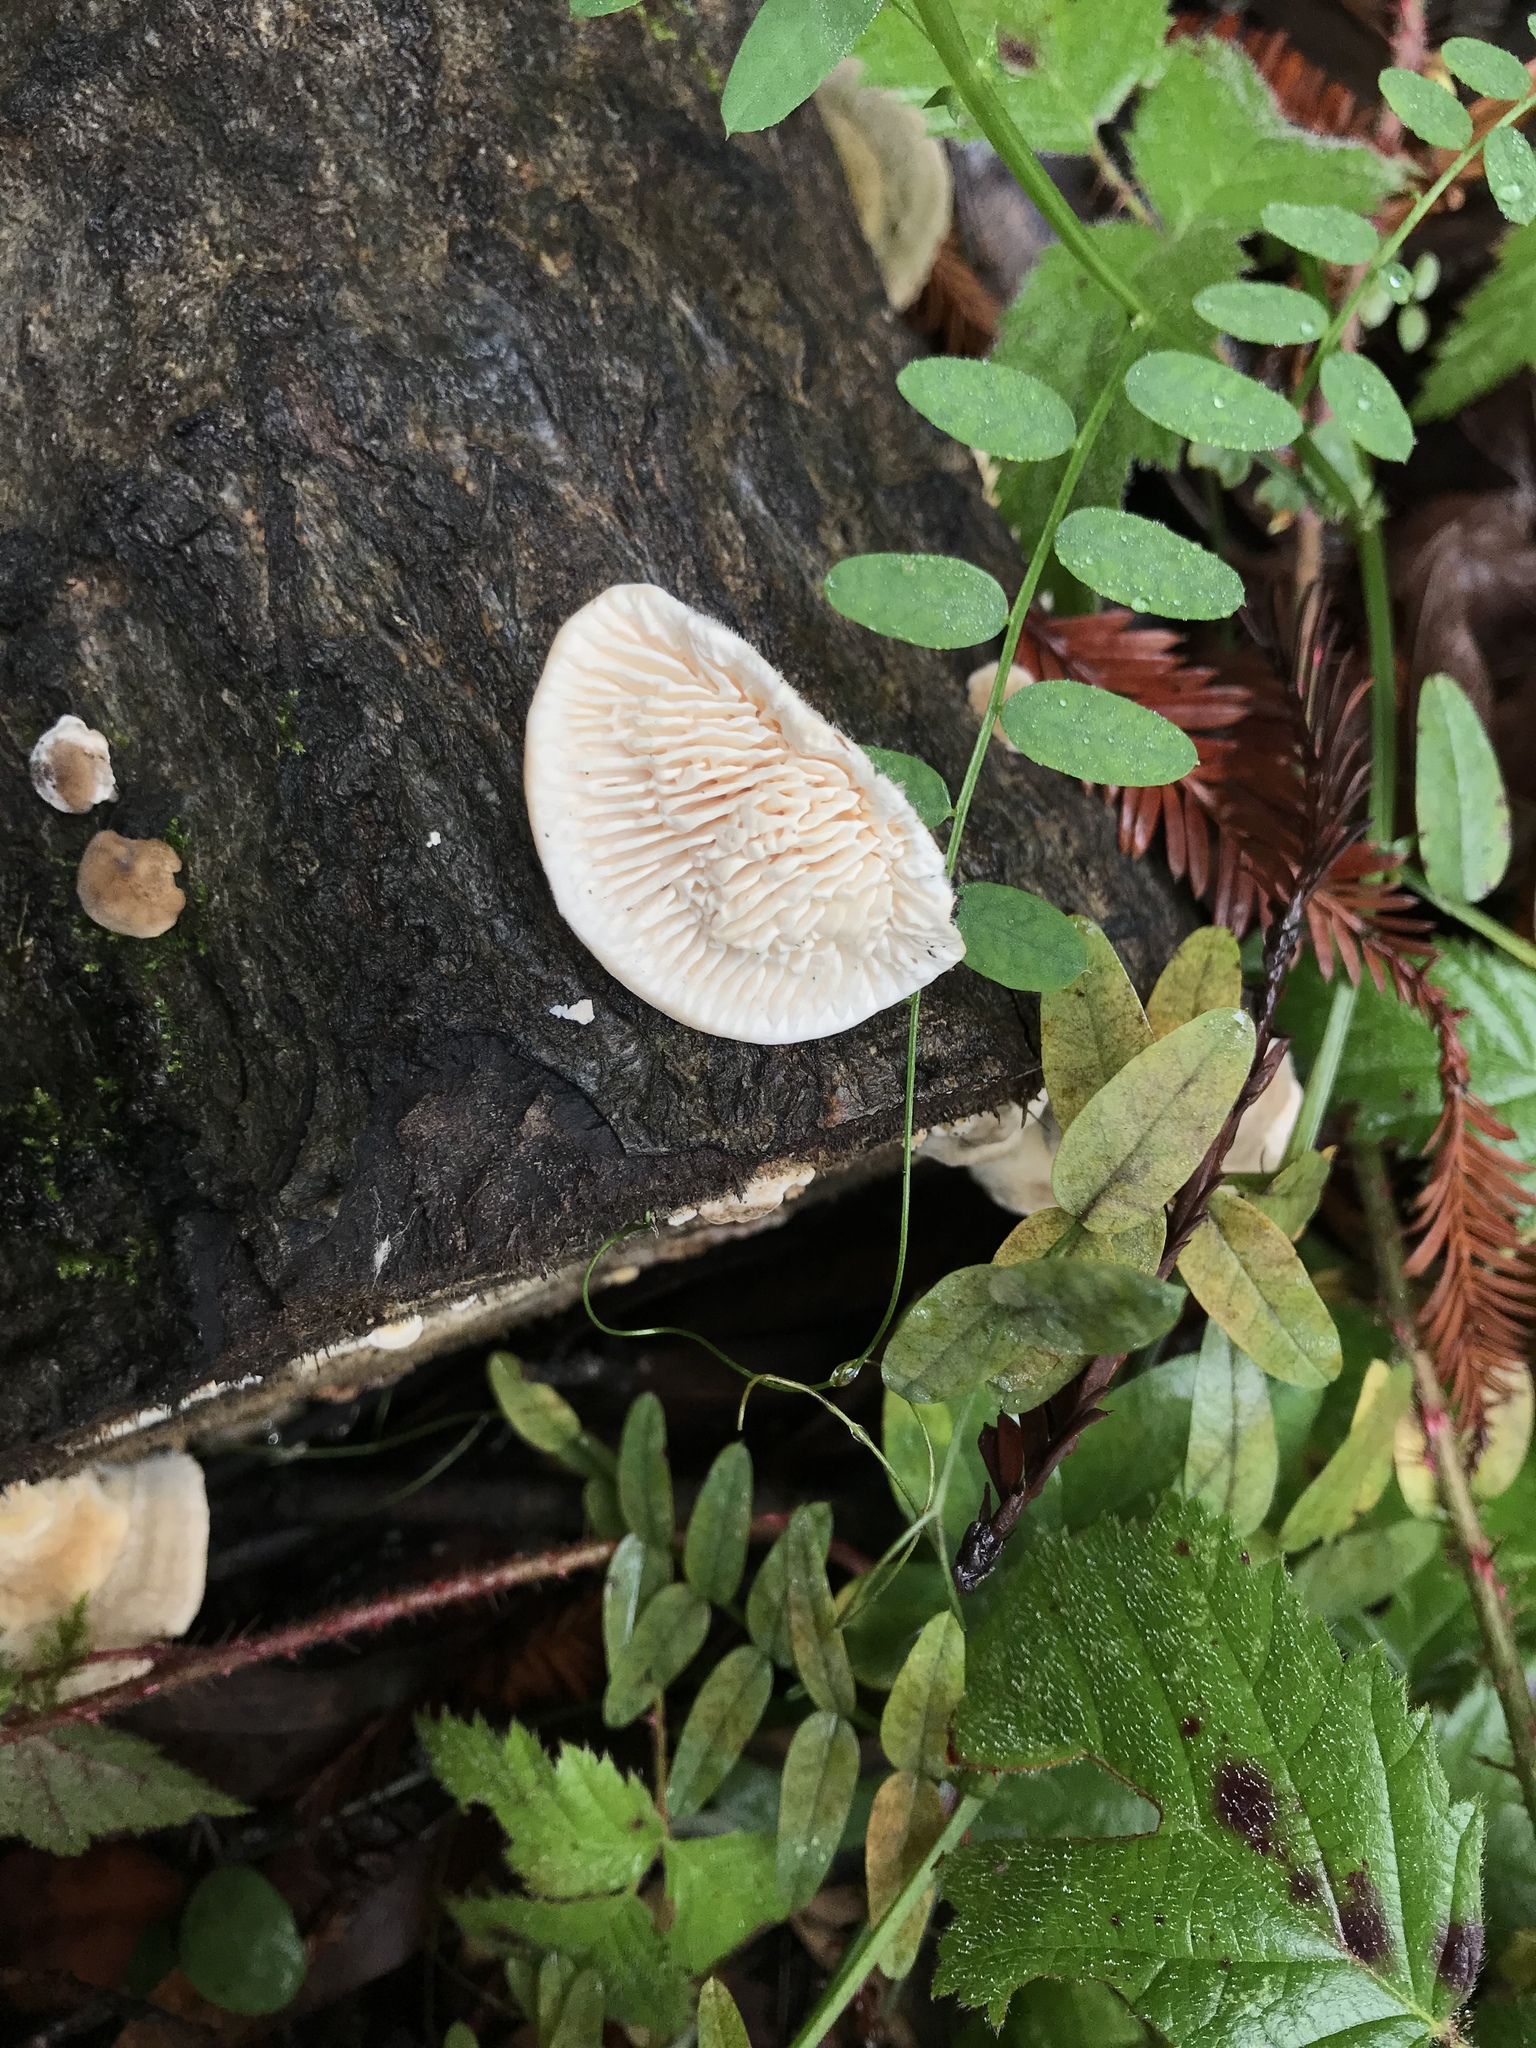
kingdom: Fungi
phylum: Basidiomycota
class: Agaricomycetes
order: Polyporales
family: Polyporaceae
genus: Lenzites
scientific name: Lenzites betulinus
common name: Birch mazegill
